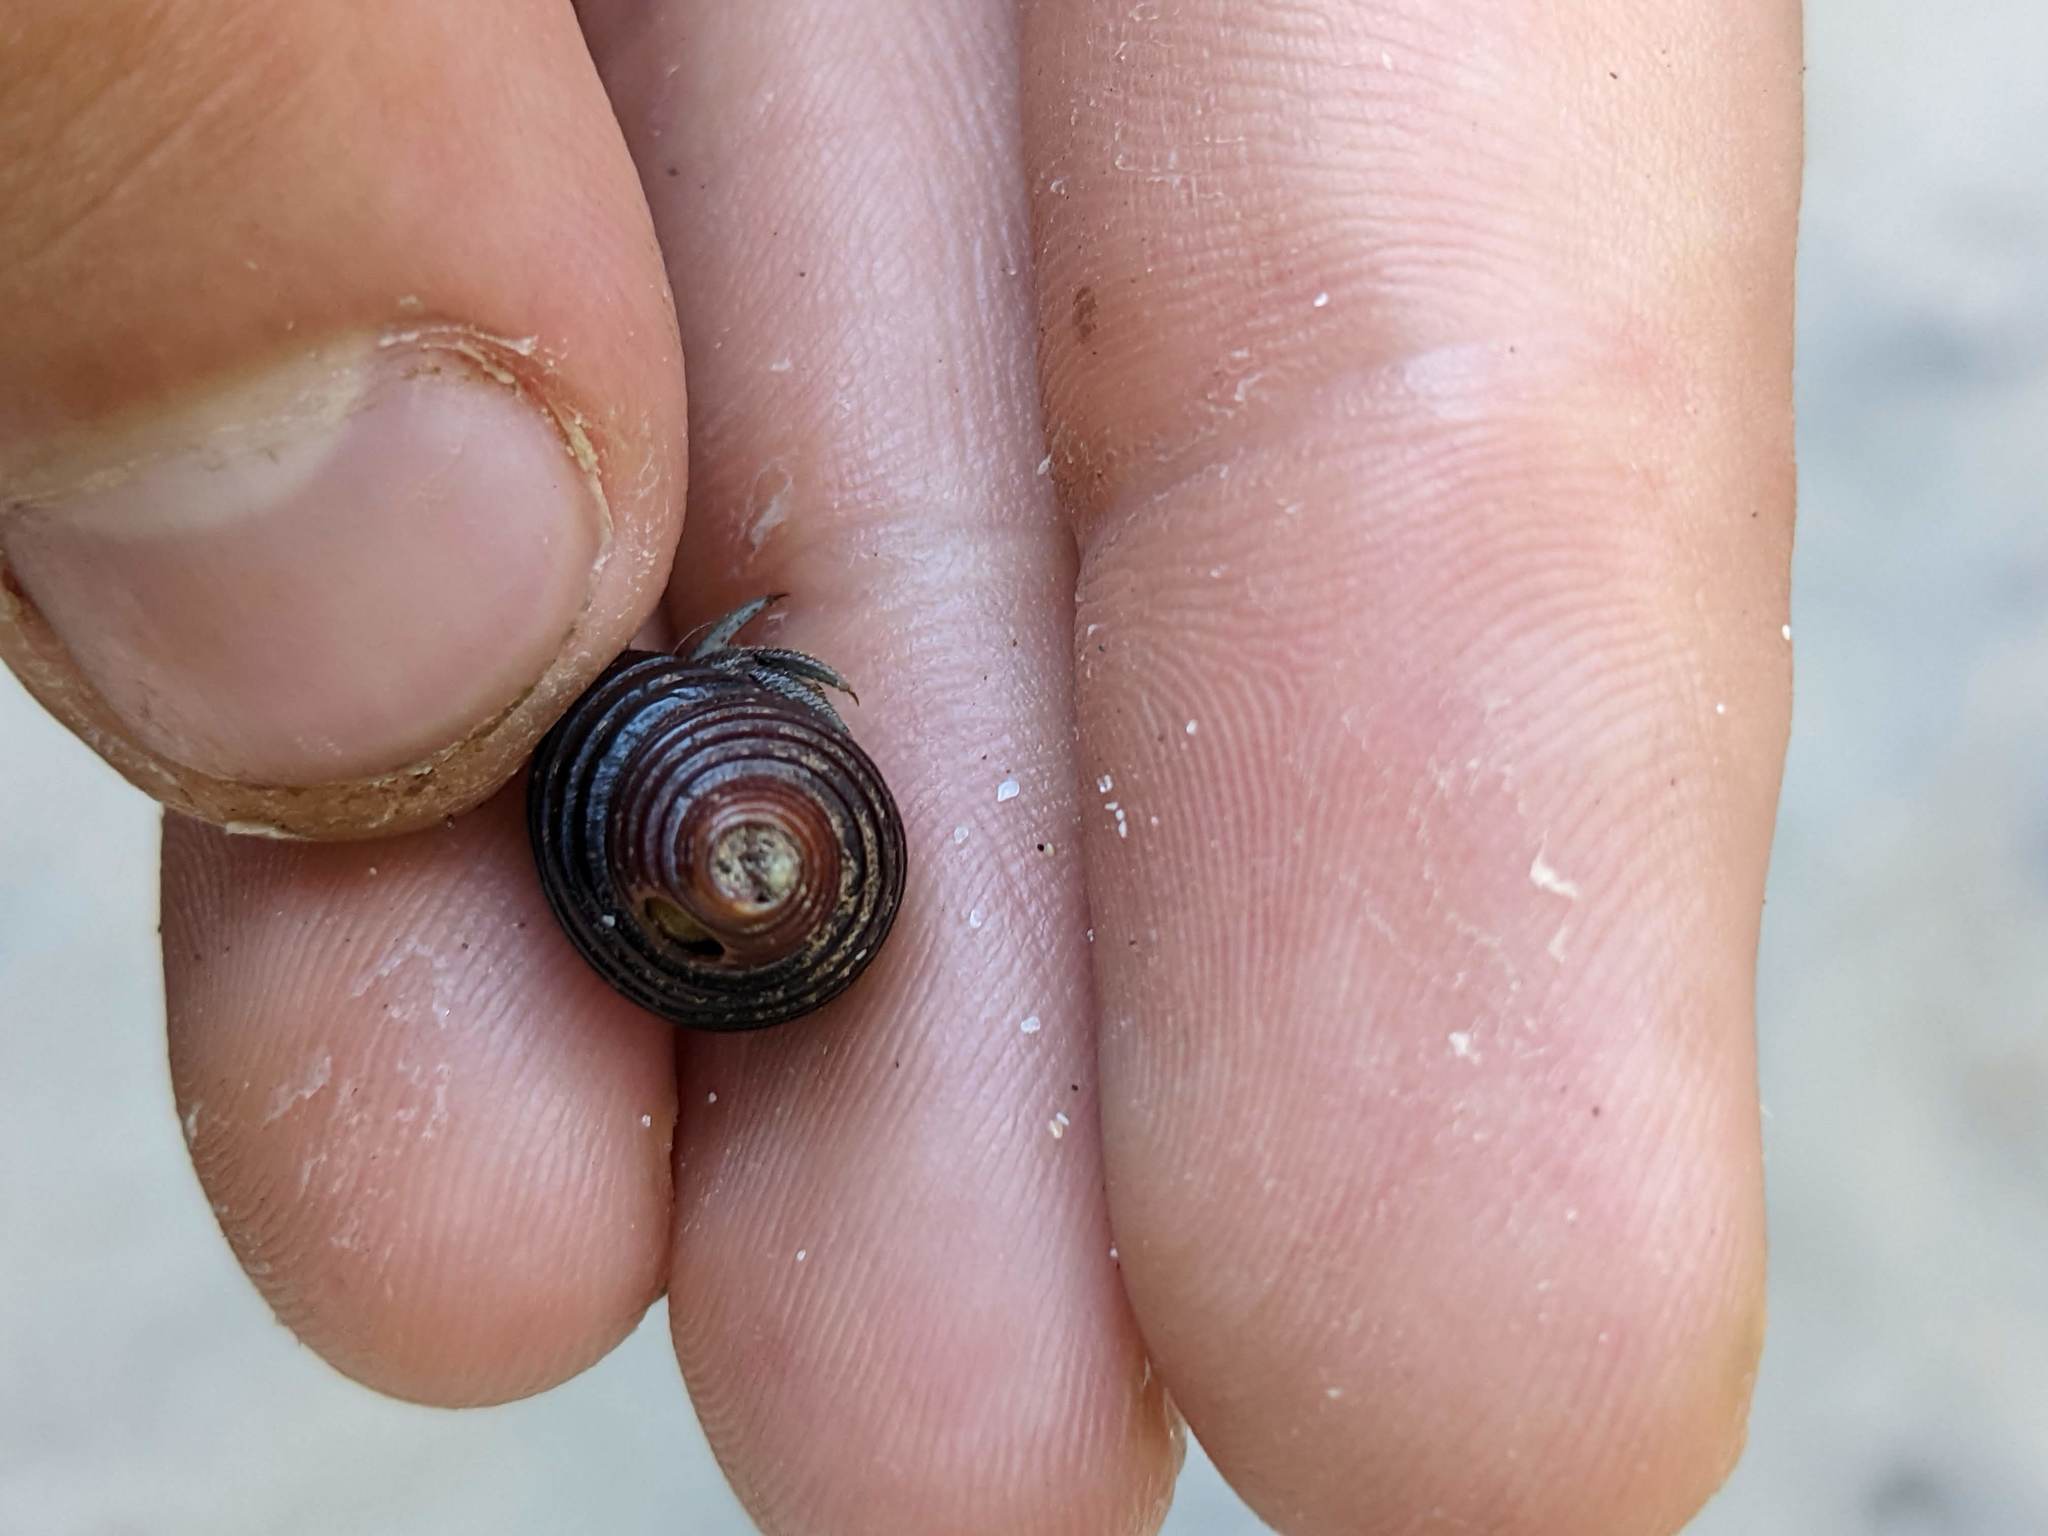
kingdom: Animalia
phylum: Mollusca
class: Gastropoda
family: Planaxidae
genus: Supplanaxis
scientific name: Supplanaxis planicostatus
